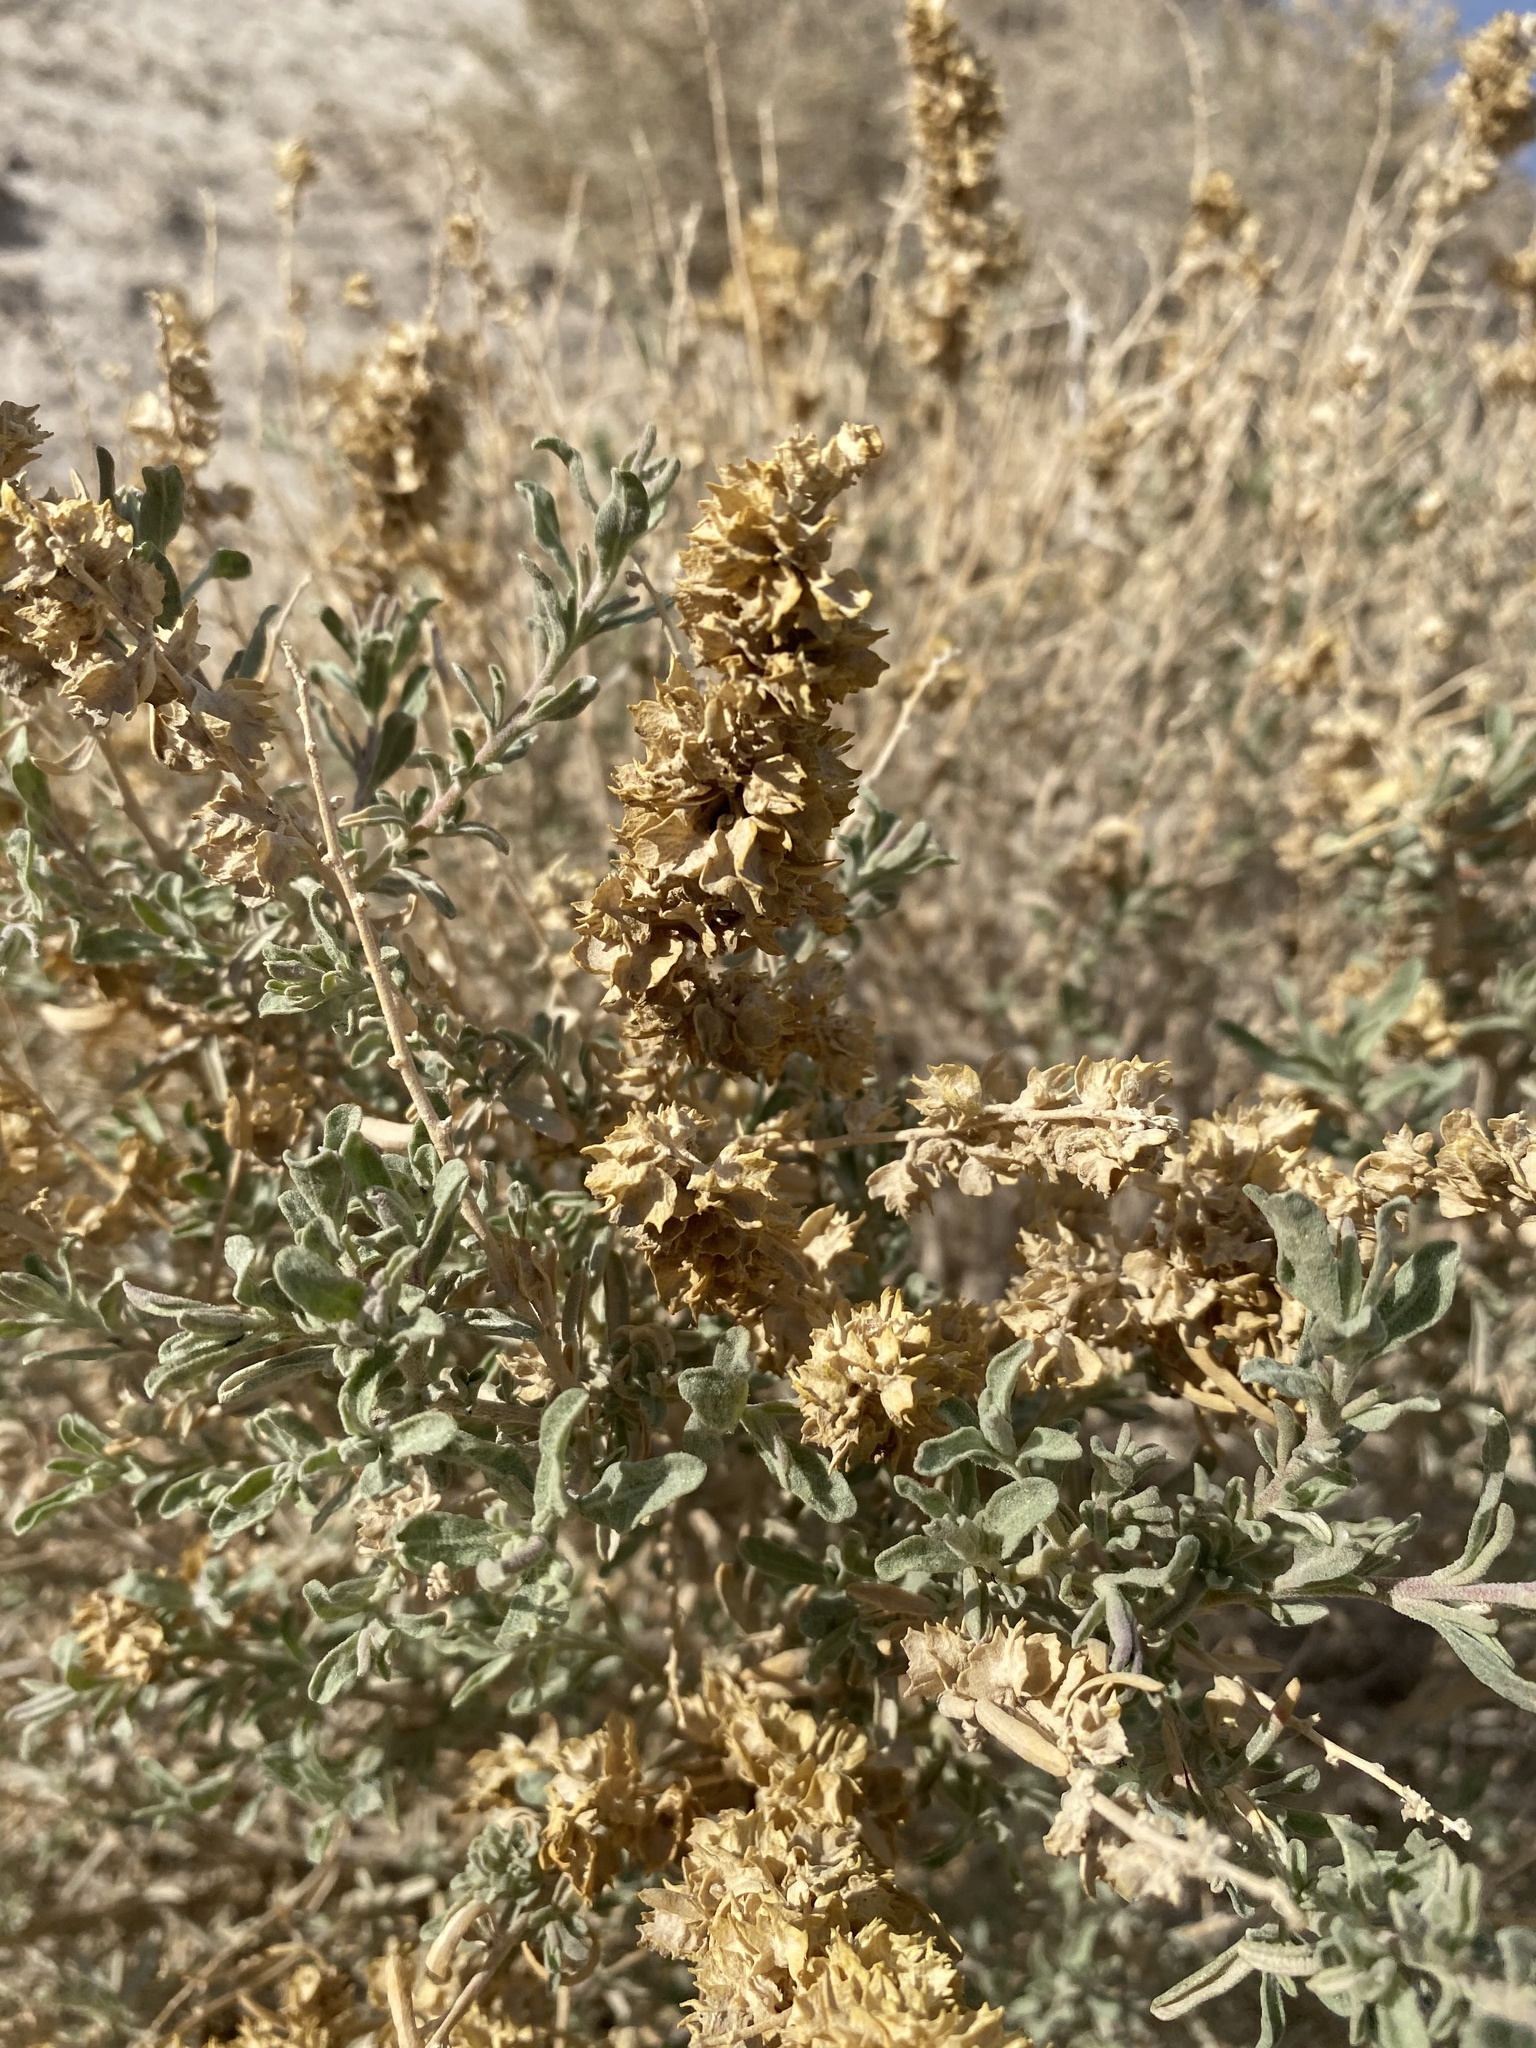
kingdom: Plantae
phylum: Tracheophyta
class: Magnoliopsida
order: Caryophyllales
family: Amaranthaceae
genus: Atriplex
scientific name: Atriplex canescens
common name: Four-wing saltbush
